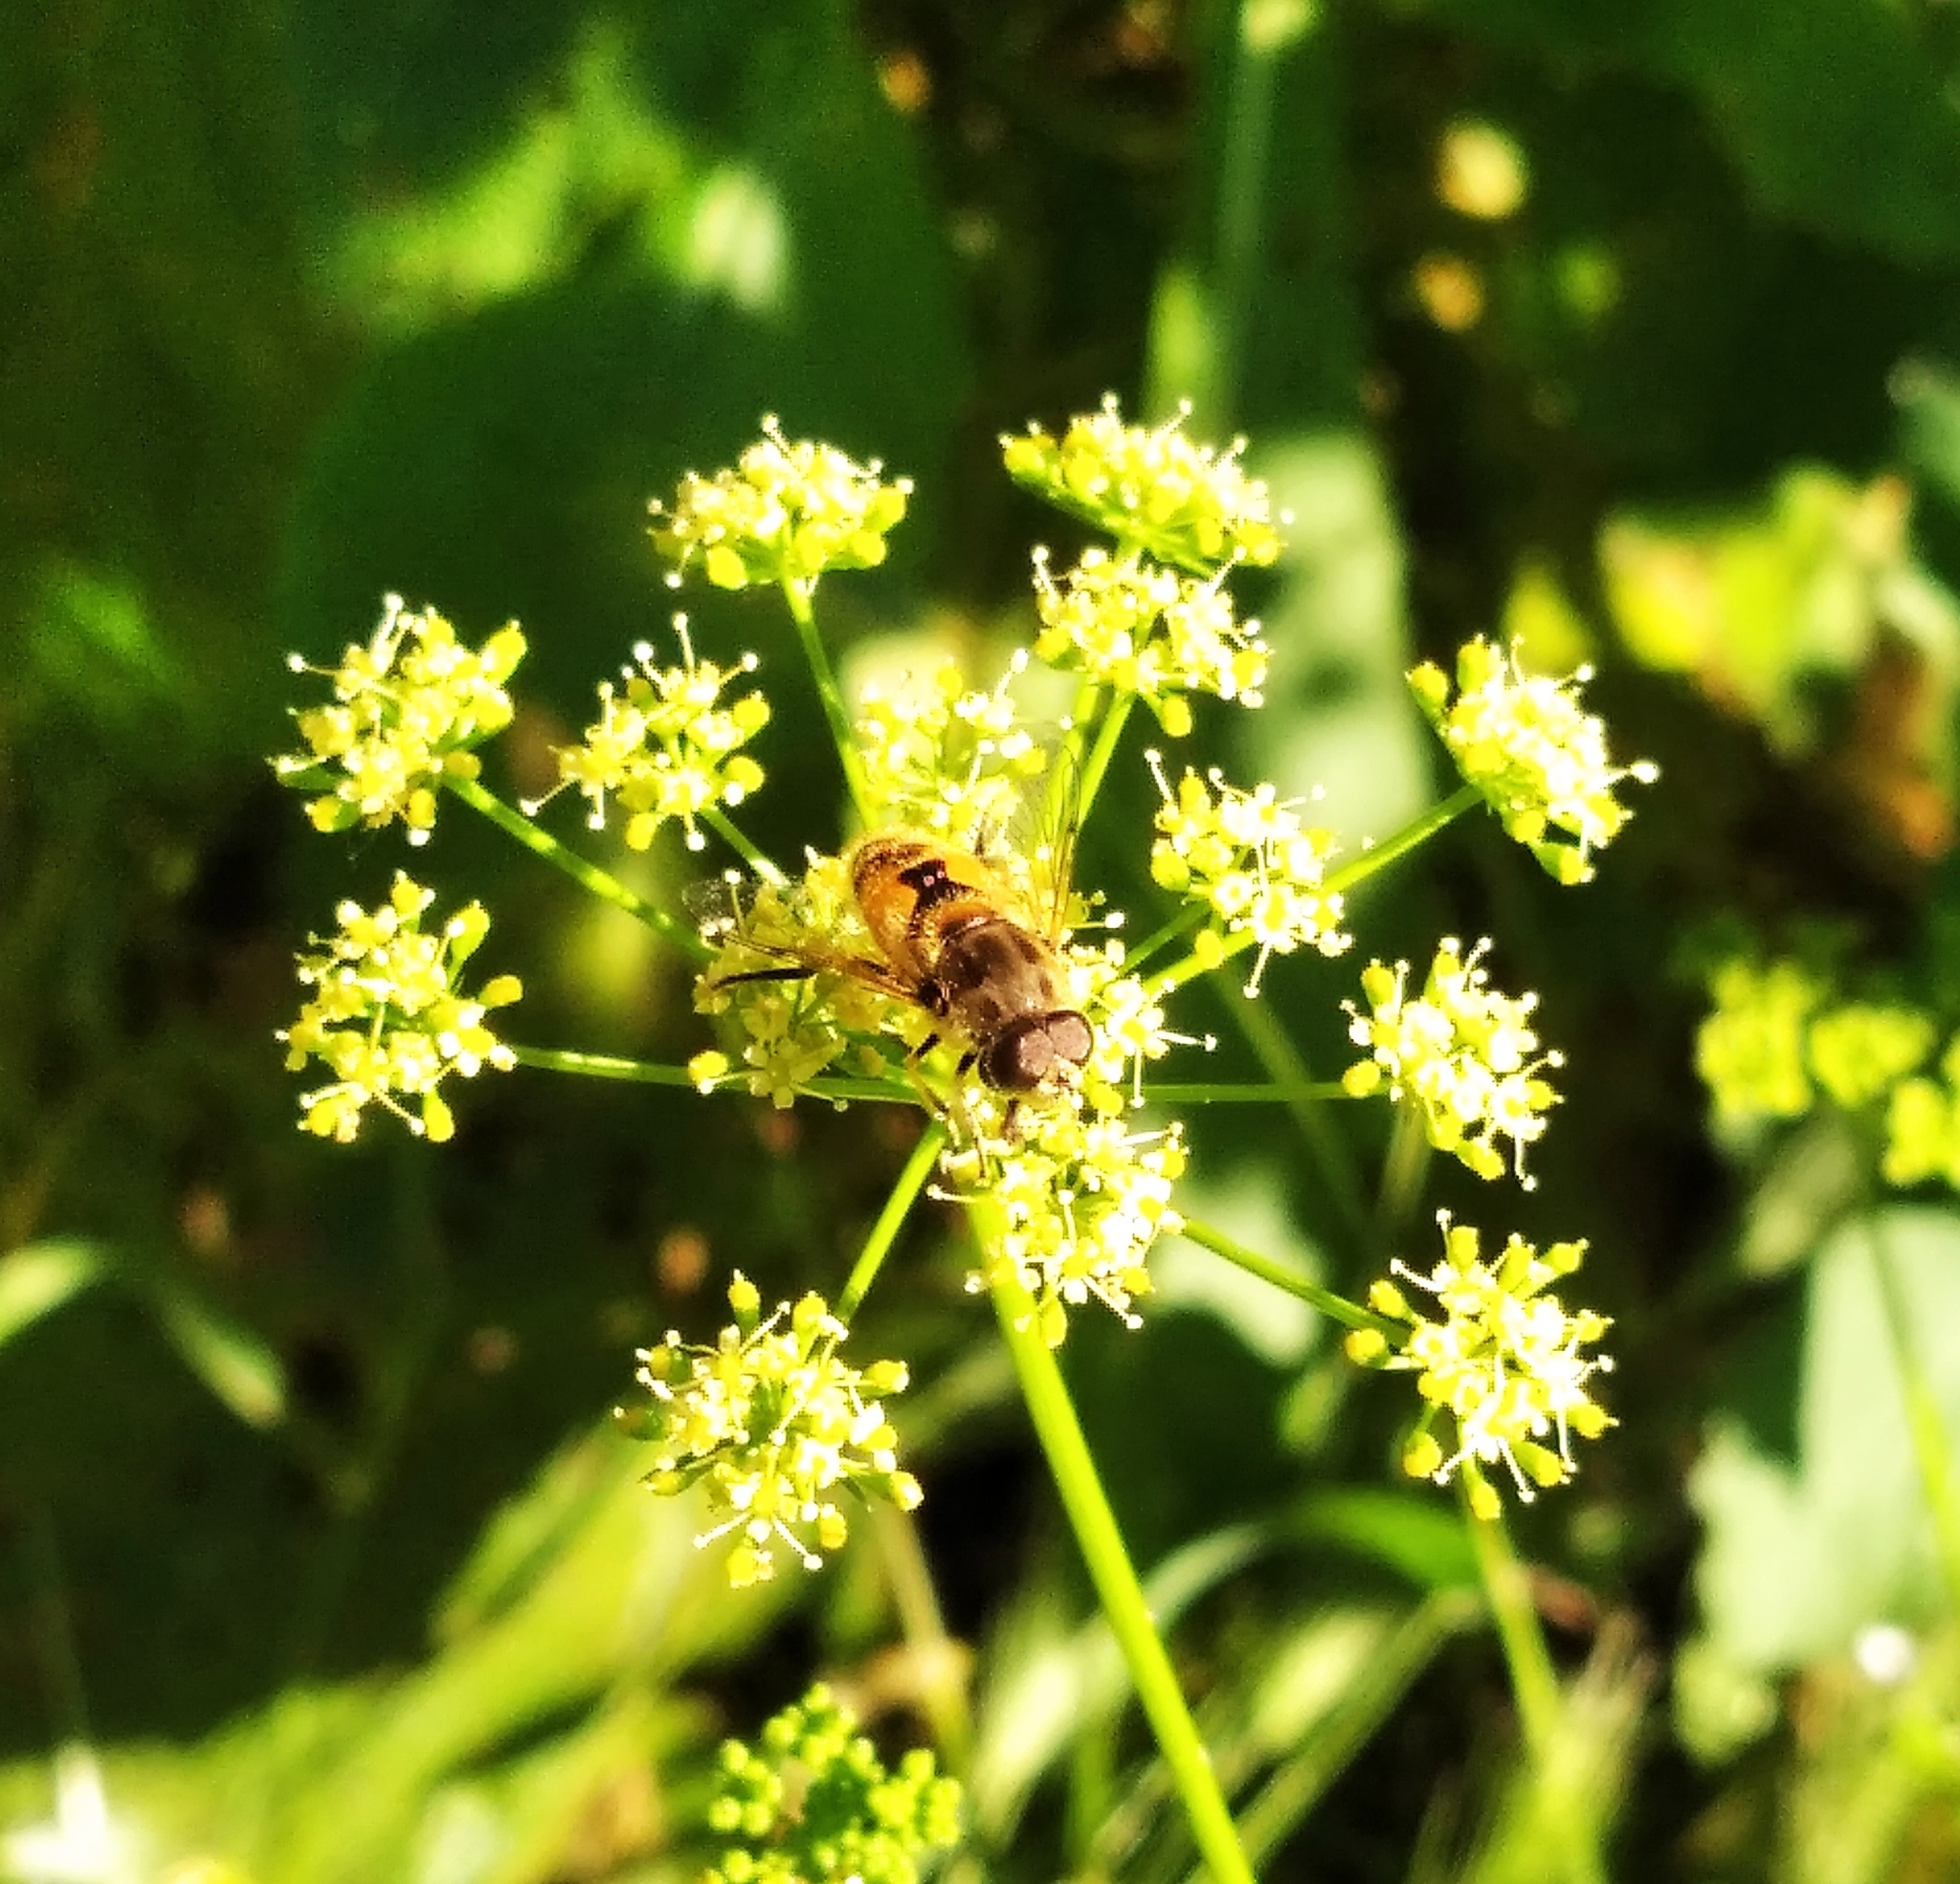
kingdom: Animalia
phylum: Arthropoda
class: Insecta
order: Diptera
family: Syrphidae
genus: Eristalis
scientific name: Eristalis arbustorum
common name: Hover fly
